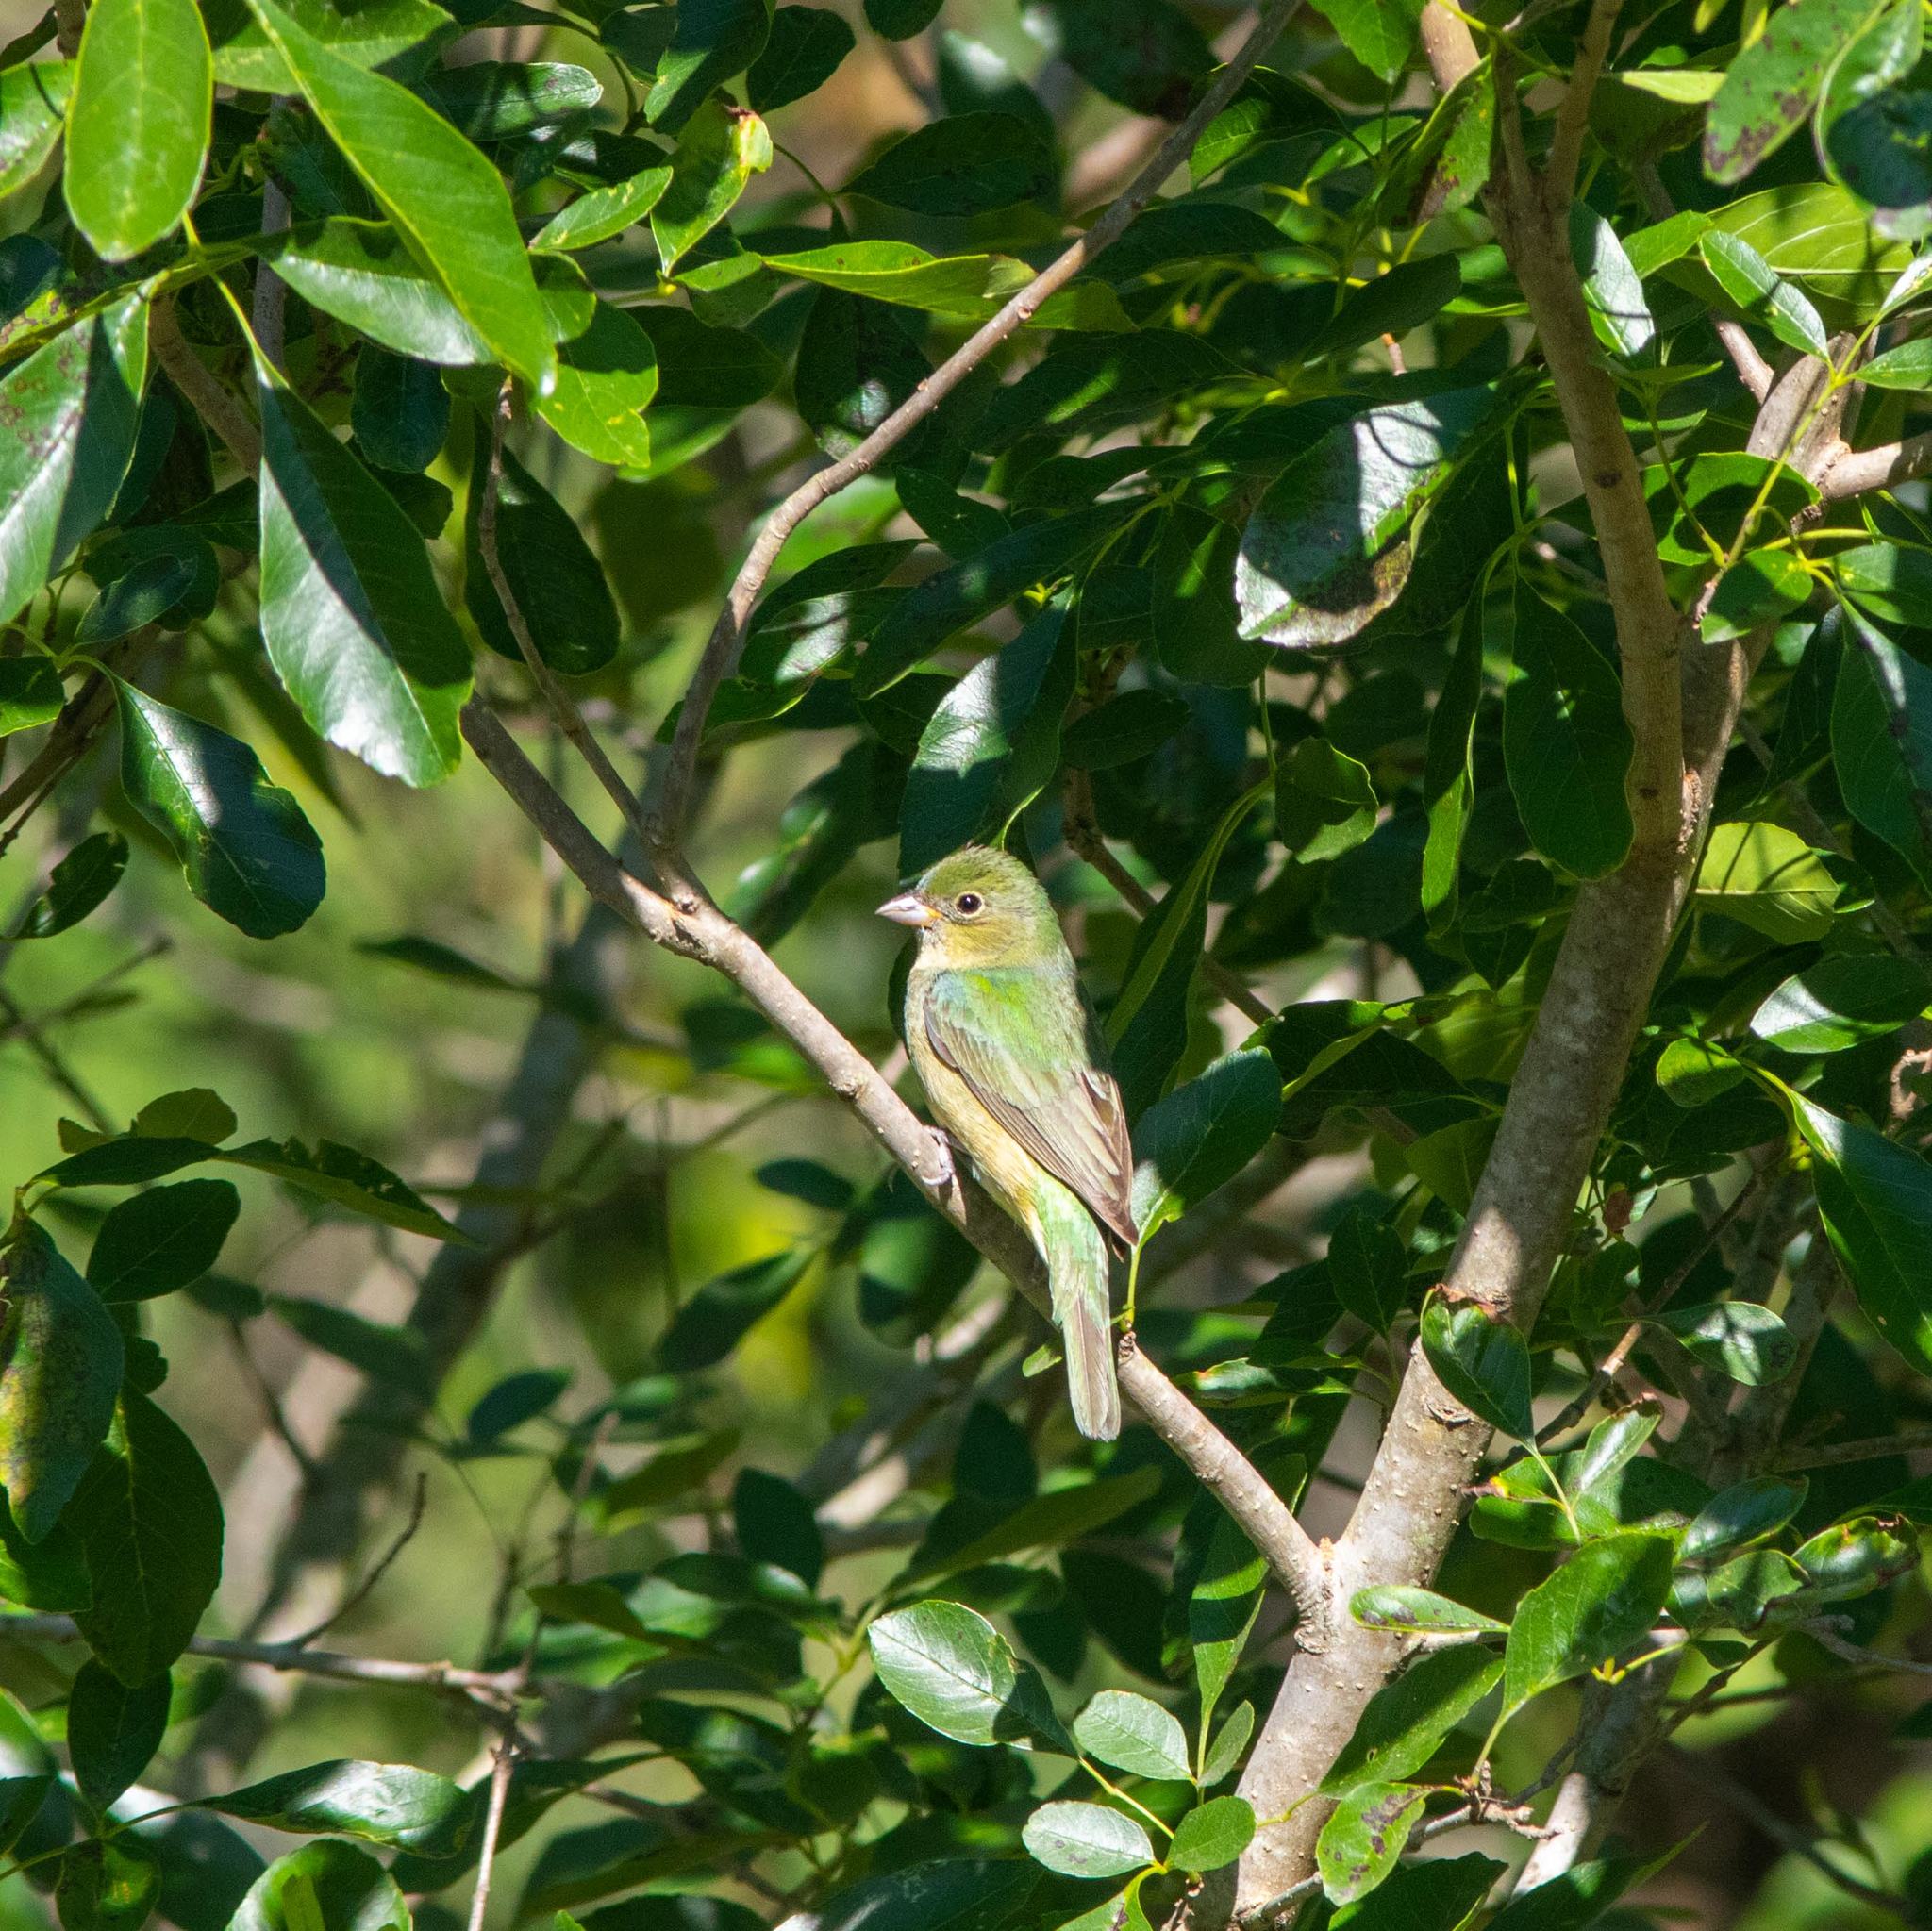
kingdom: Animalia
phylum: Chordata
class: Aves
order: Passeriformes
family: Cardinalidae
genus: Passerina
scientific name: Passerina ciris
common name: Painted bunting
